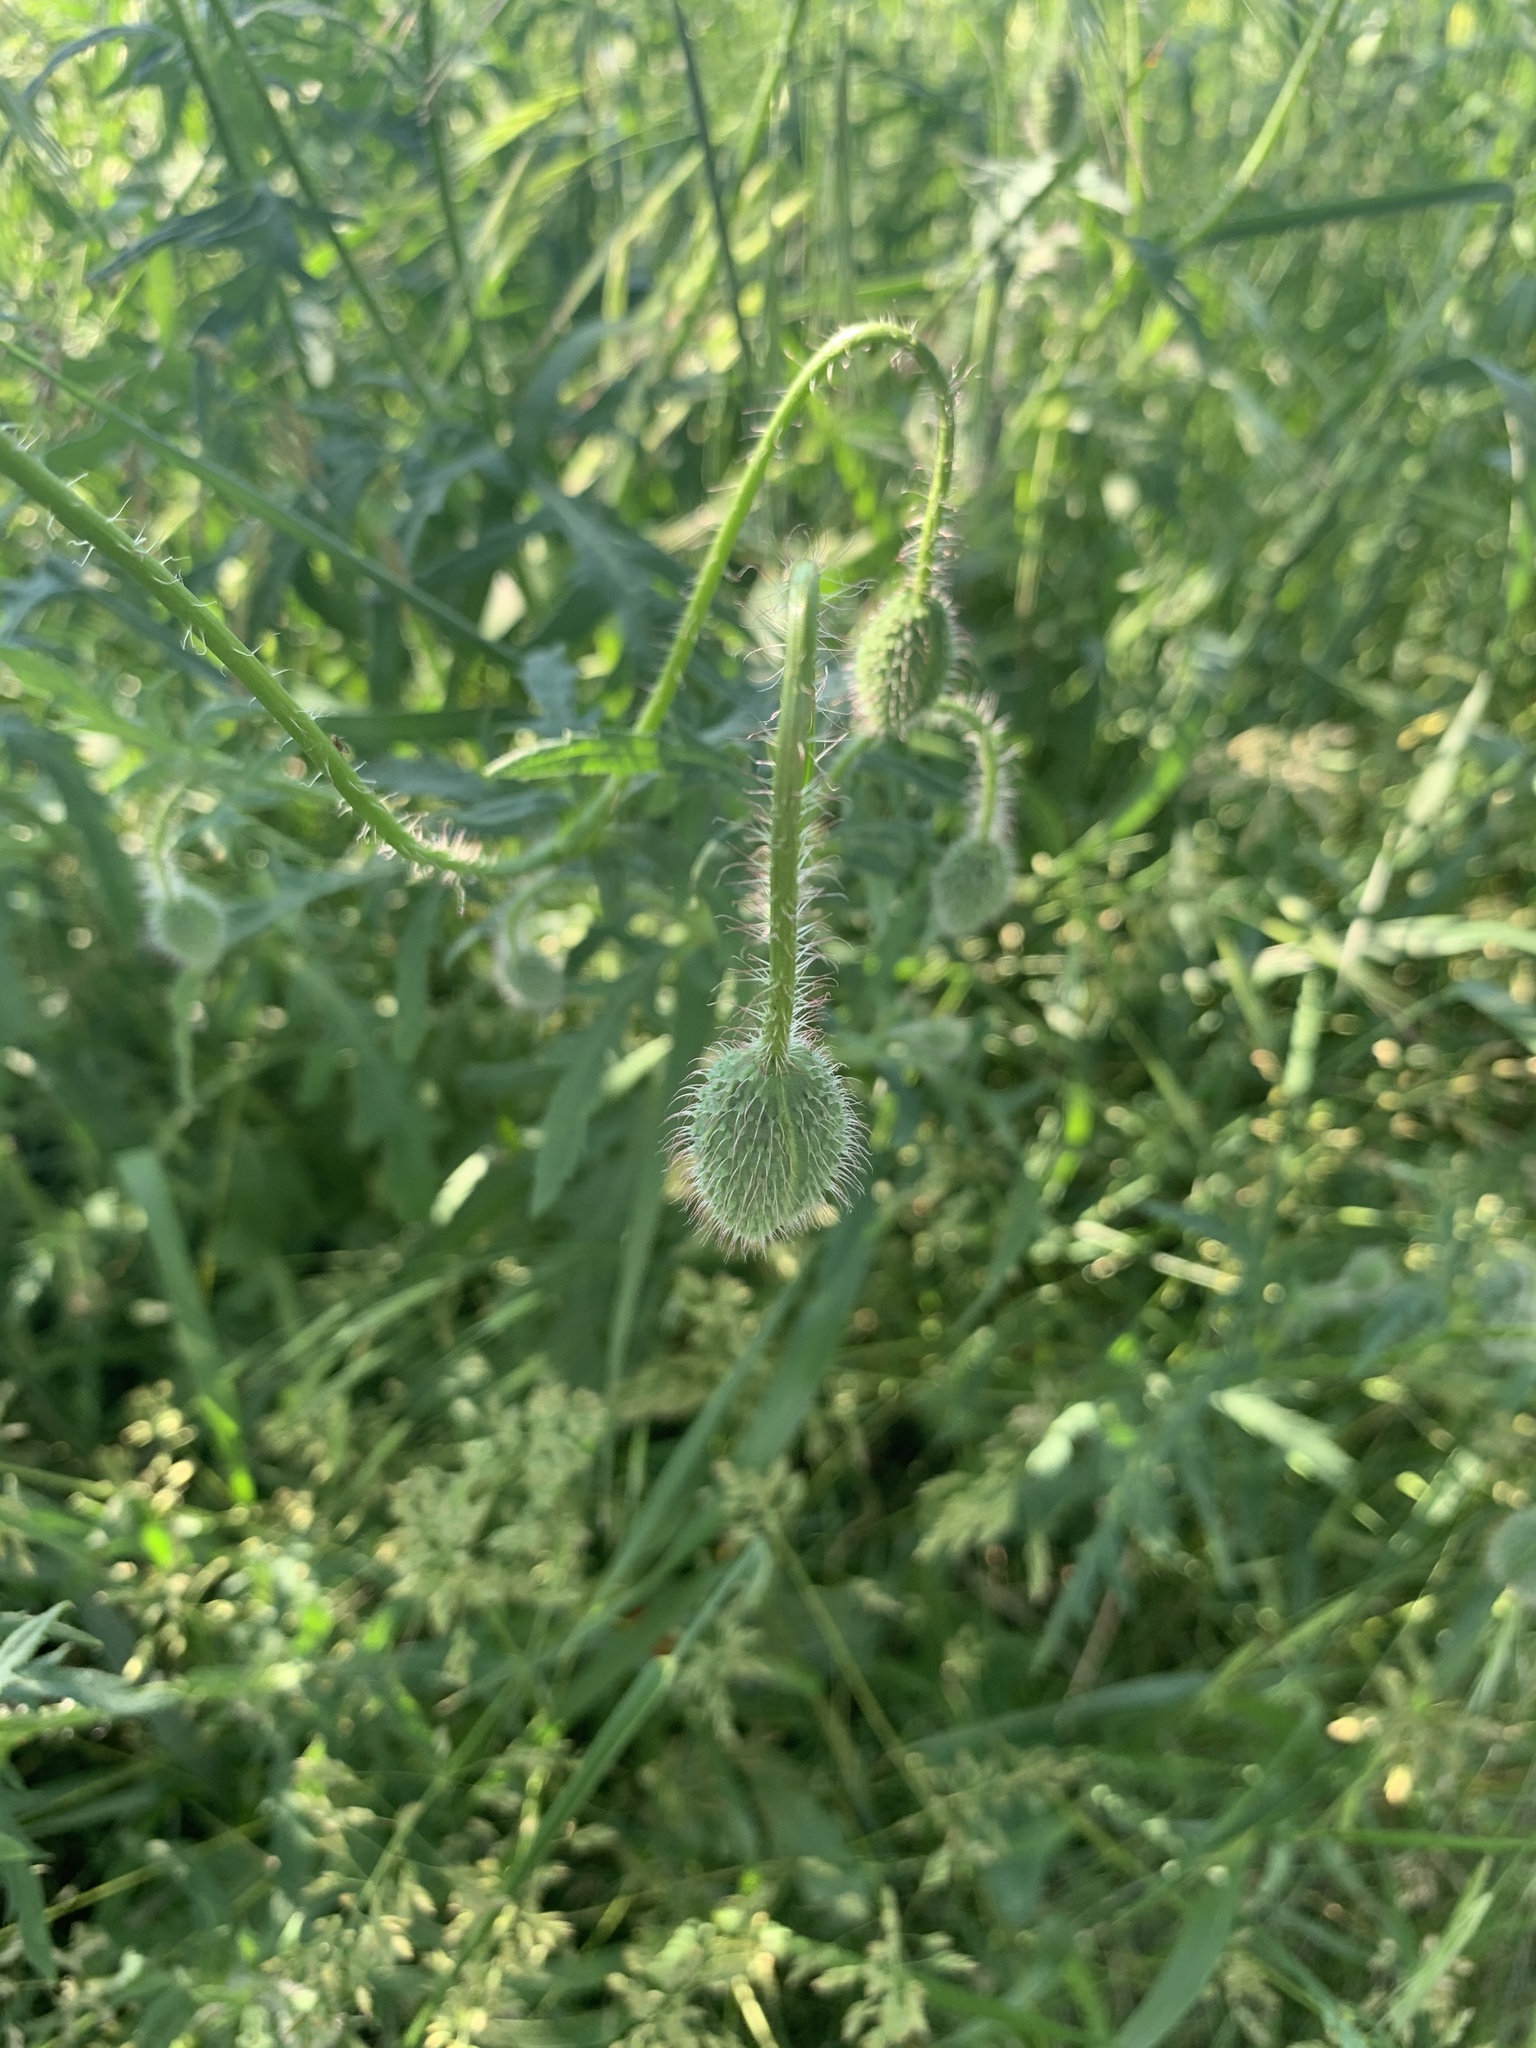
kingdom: Plantae
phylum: Tracheophyta
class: Magnoliopsida
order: Ranunculales
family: Papaveraceae
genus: Papaver
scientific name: Papaver rhoeas
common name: Corn poppy
